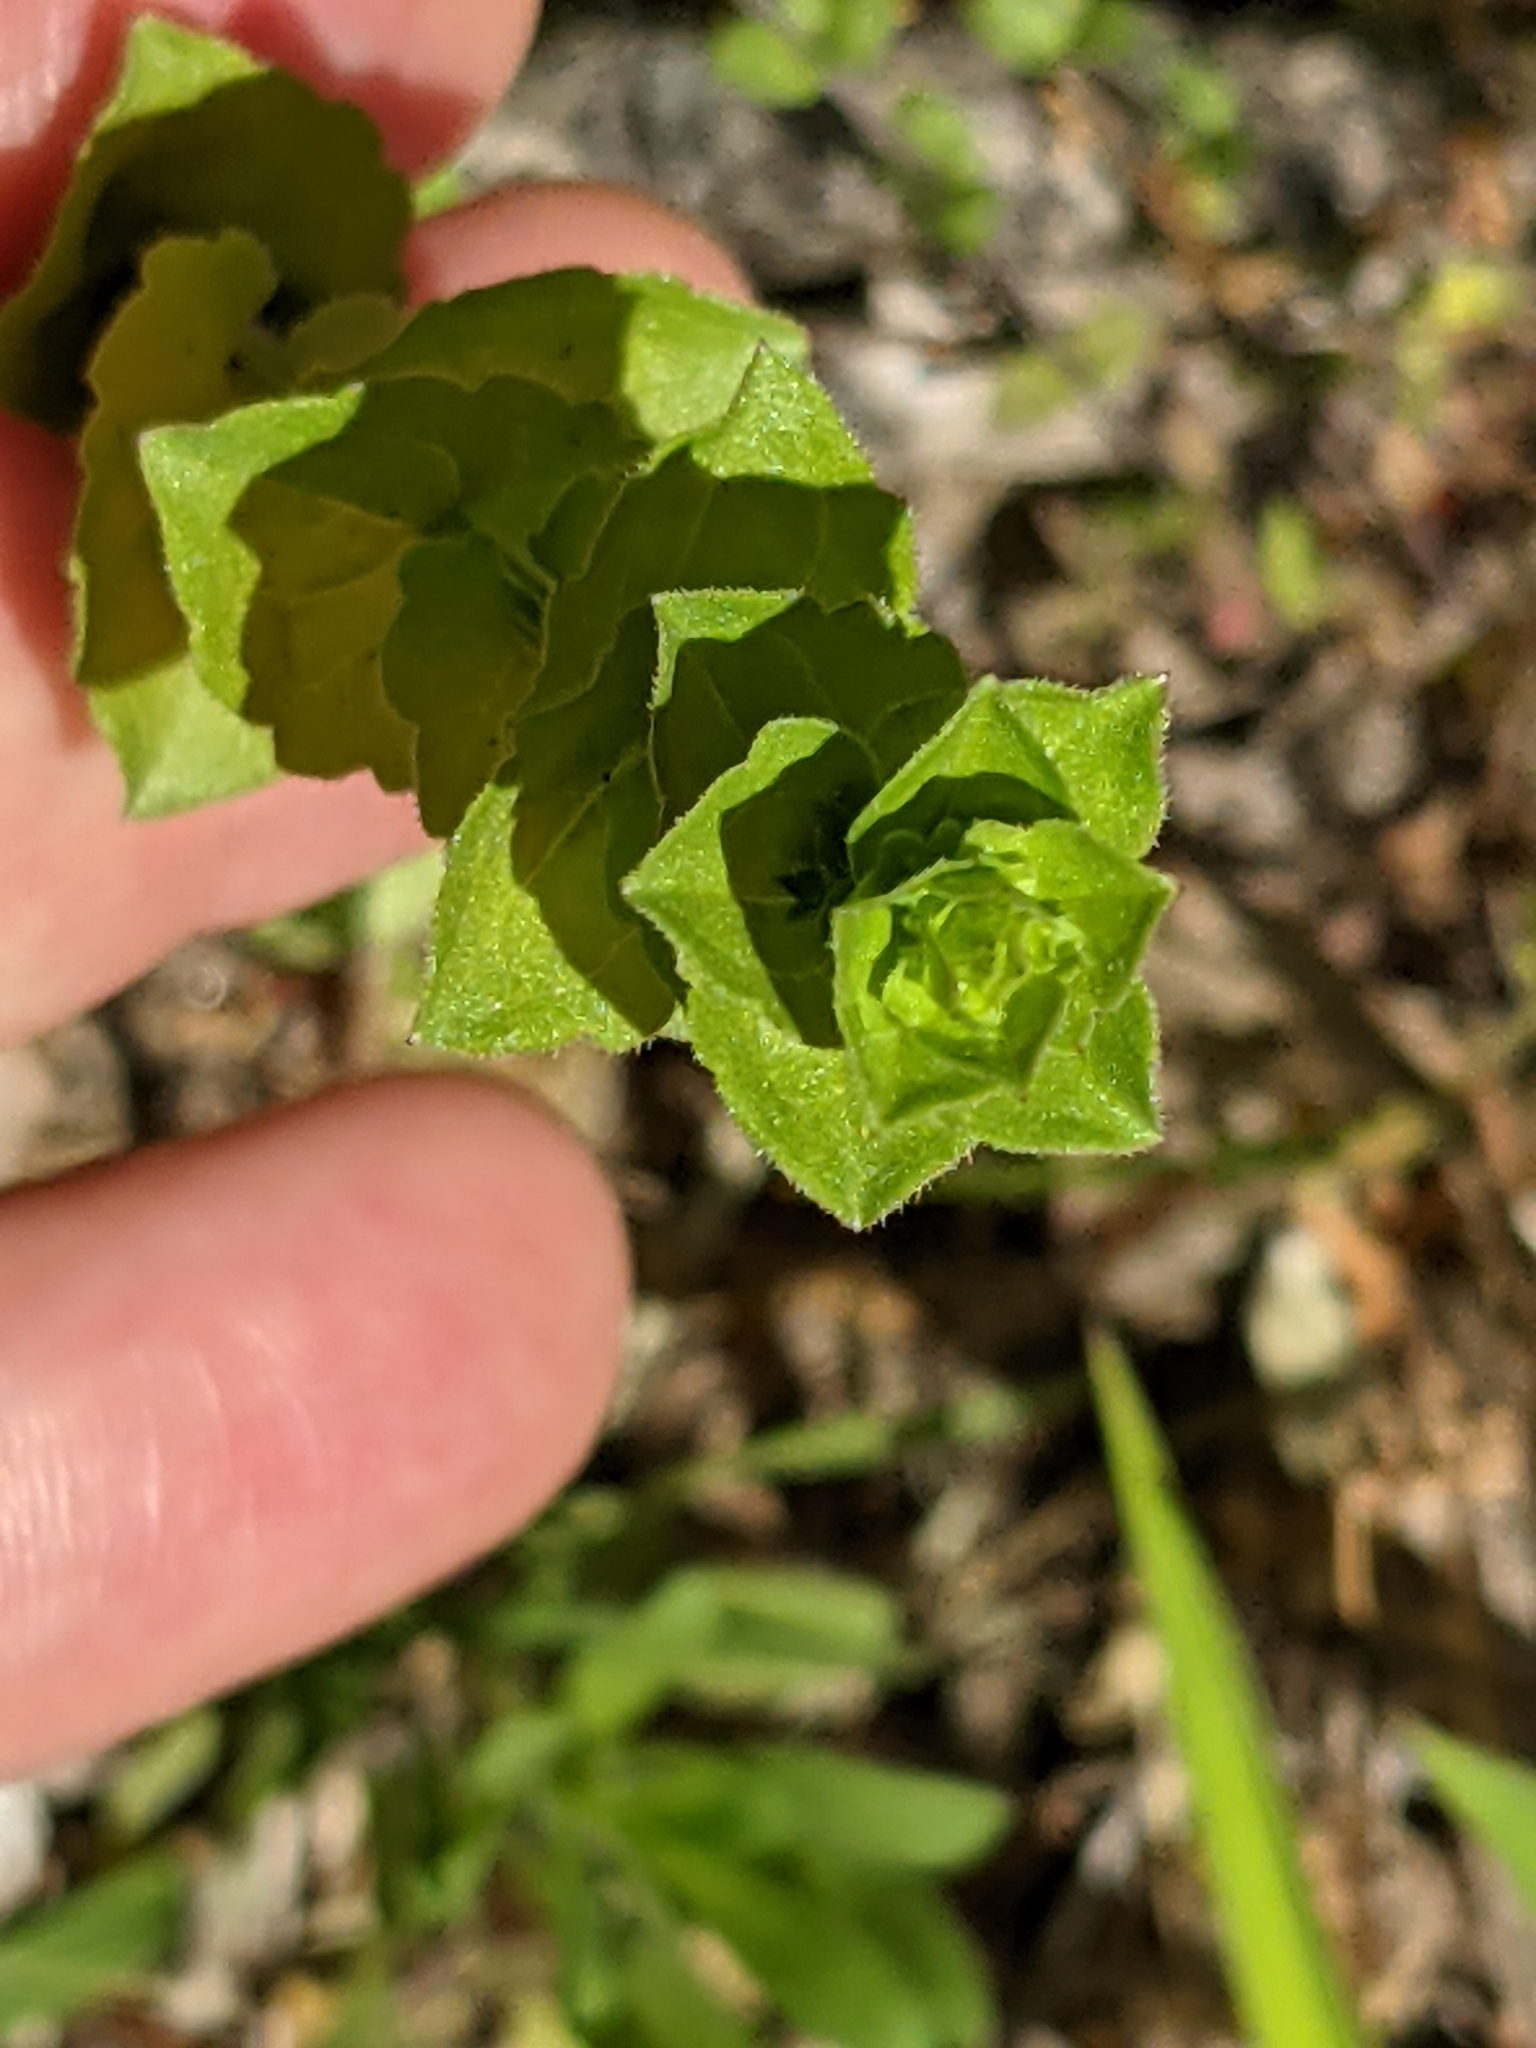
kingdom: Plantae
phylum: Tracheophyta
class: Magnoliopsida
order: Asterales
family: Campanulaceae
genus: Triodanis
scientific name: Triodanis perfoliata
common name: Clasping venus' looking-glass
